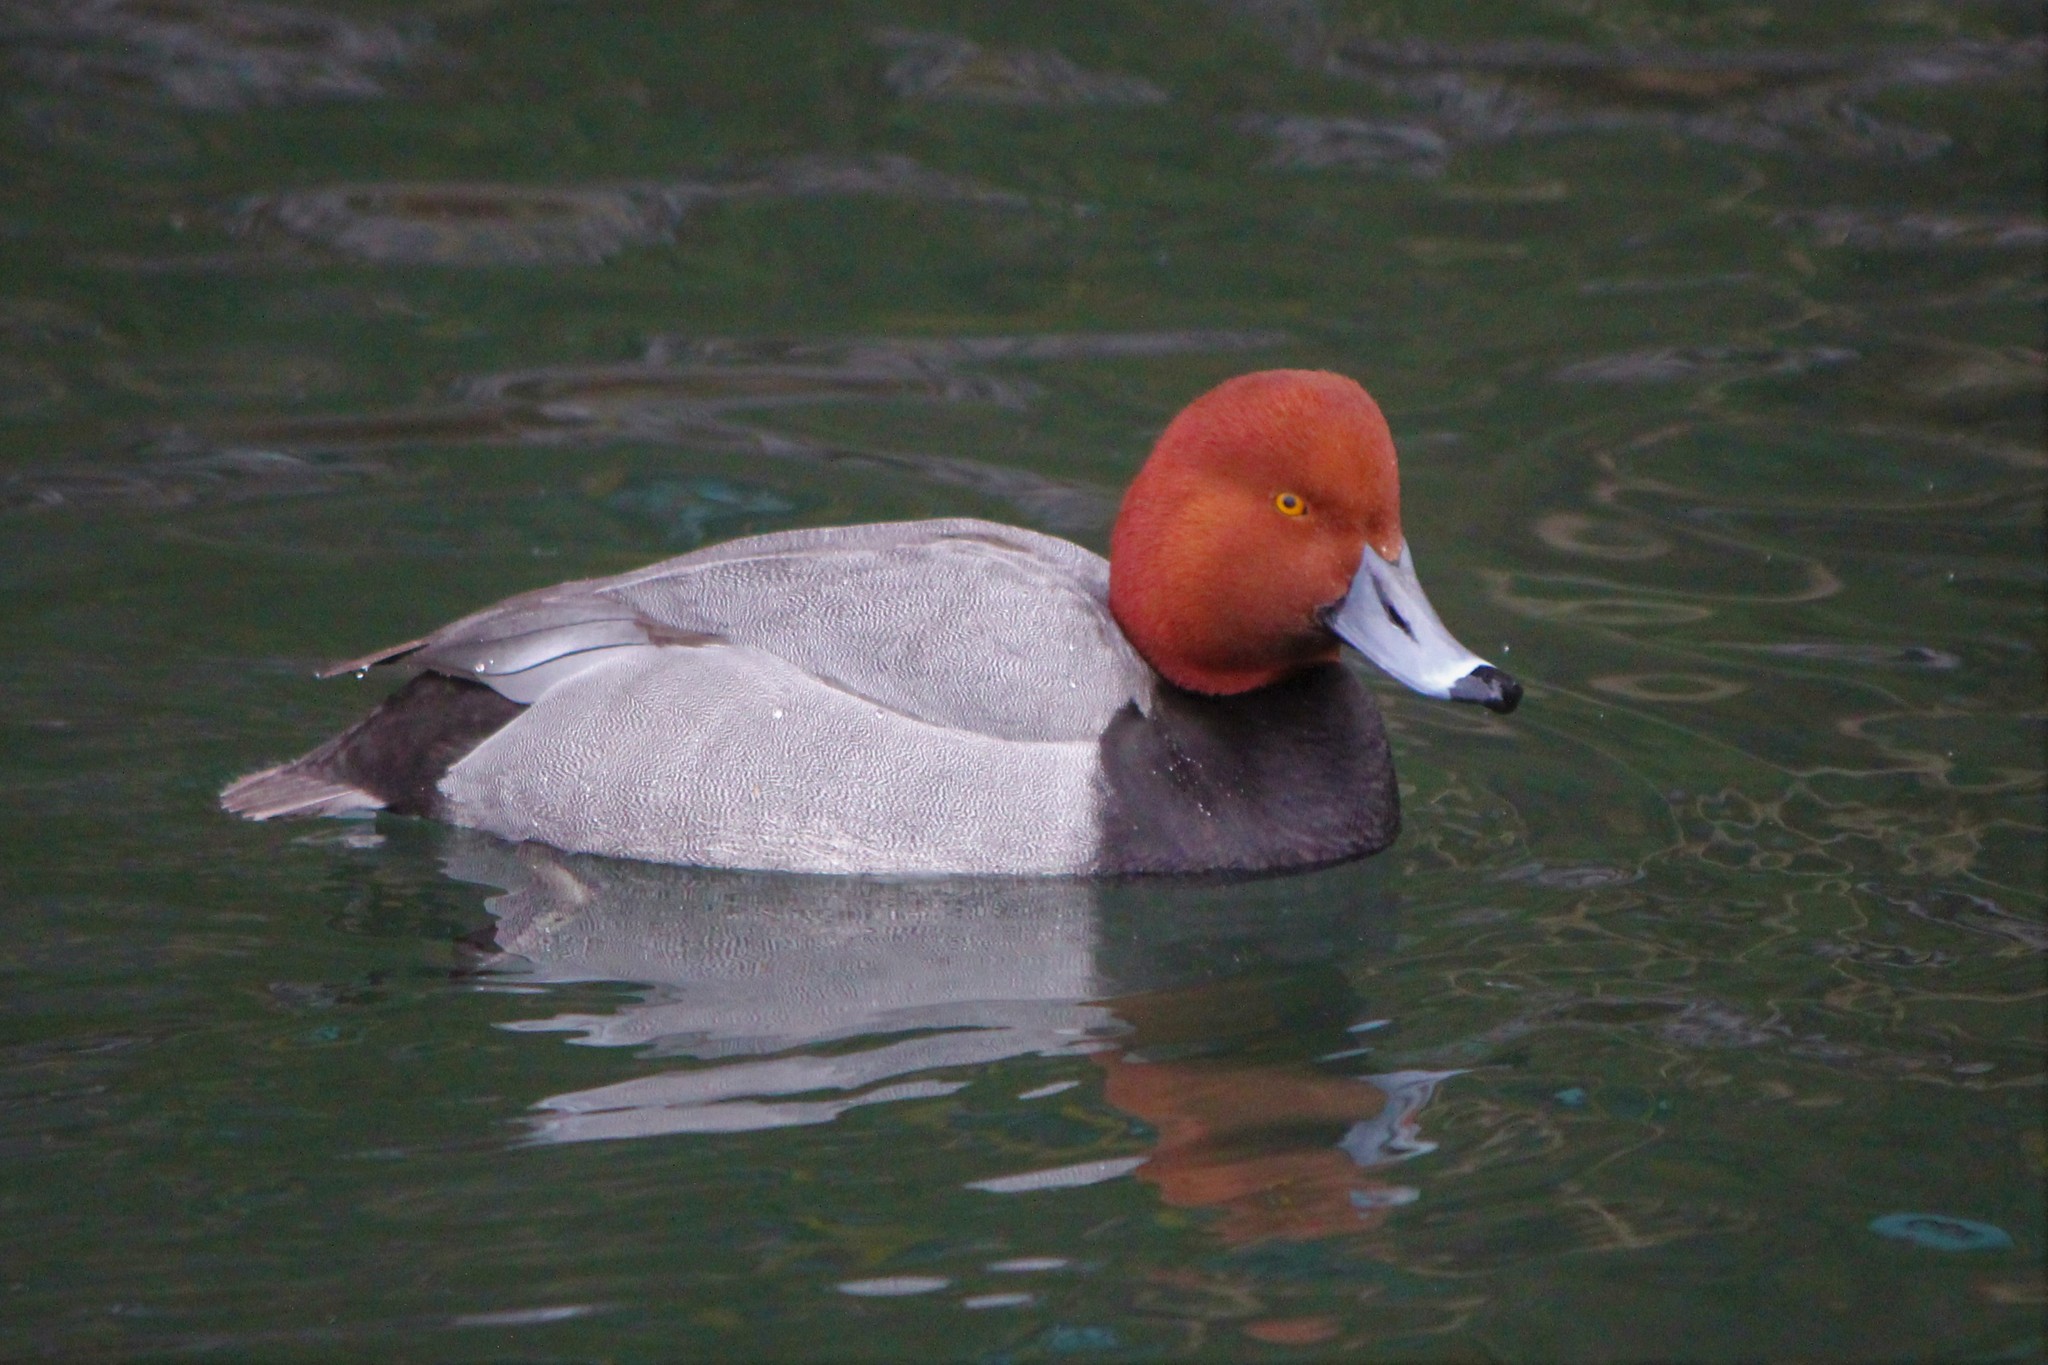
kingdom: Animalia
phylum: Chordata
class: Aves
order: Anseriformes
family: Anatidae
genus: Aythya
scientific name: Aythya americana
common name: Redhead
